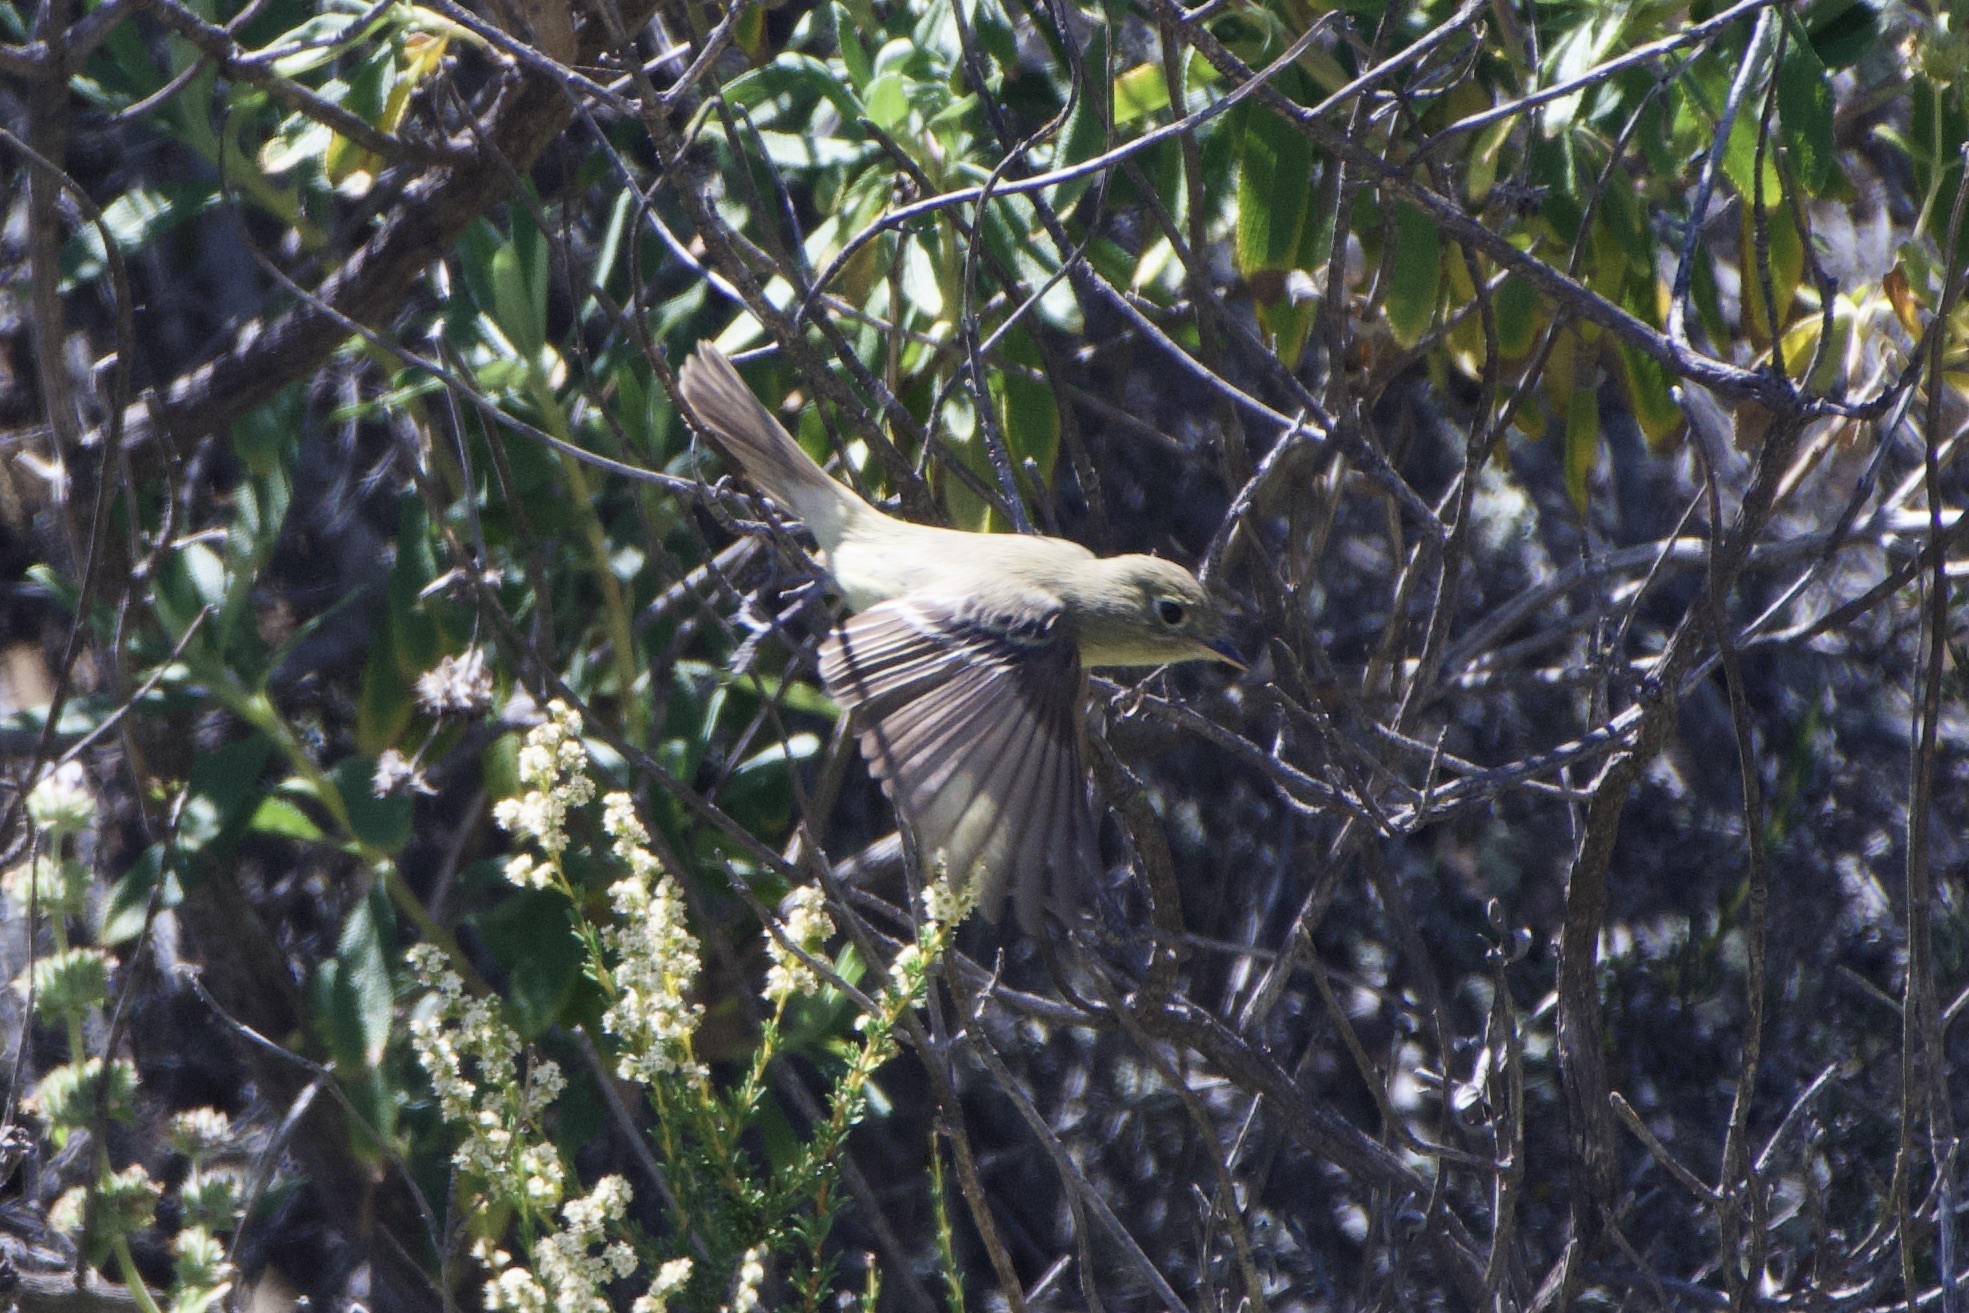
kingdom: Animalia
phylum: Chordata
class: Aves
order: Passeriformes
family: Tyrannidae
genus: Empidonax
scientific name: Empidonax difficilis
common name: Pacific-slope flycatcher
